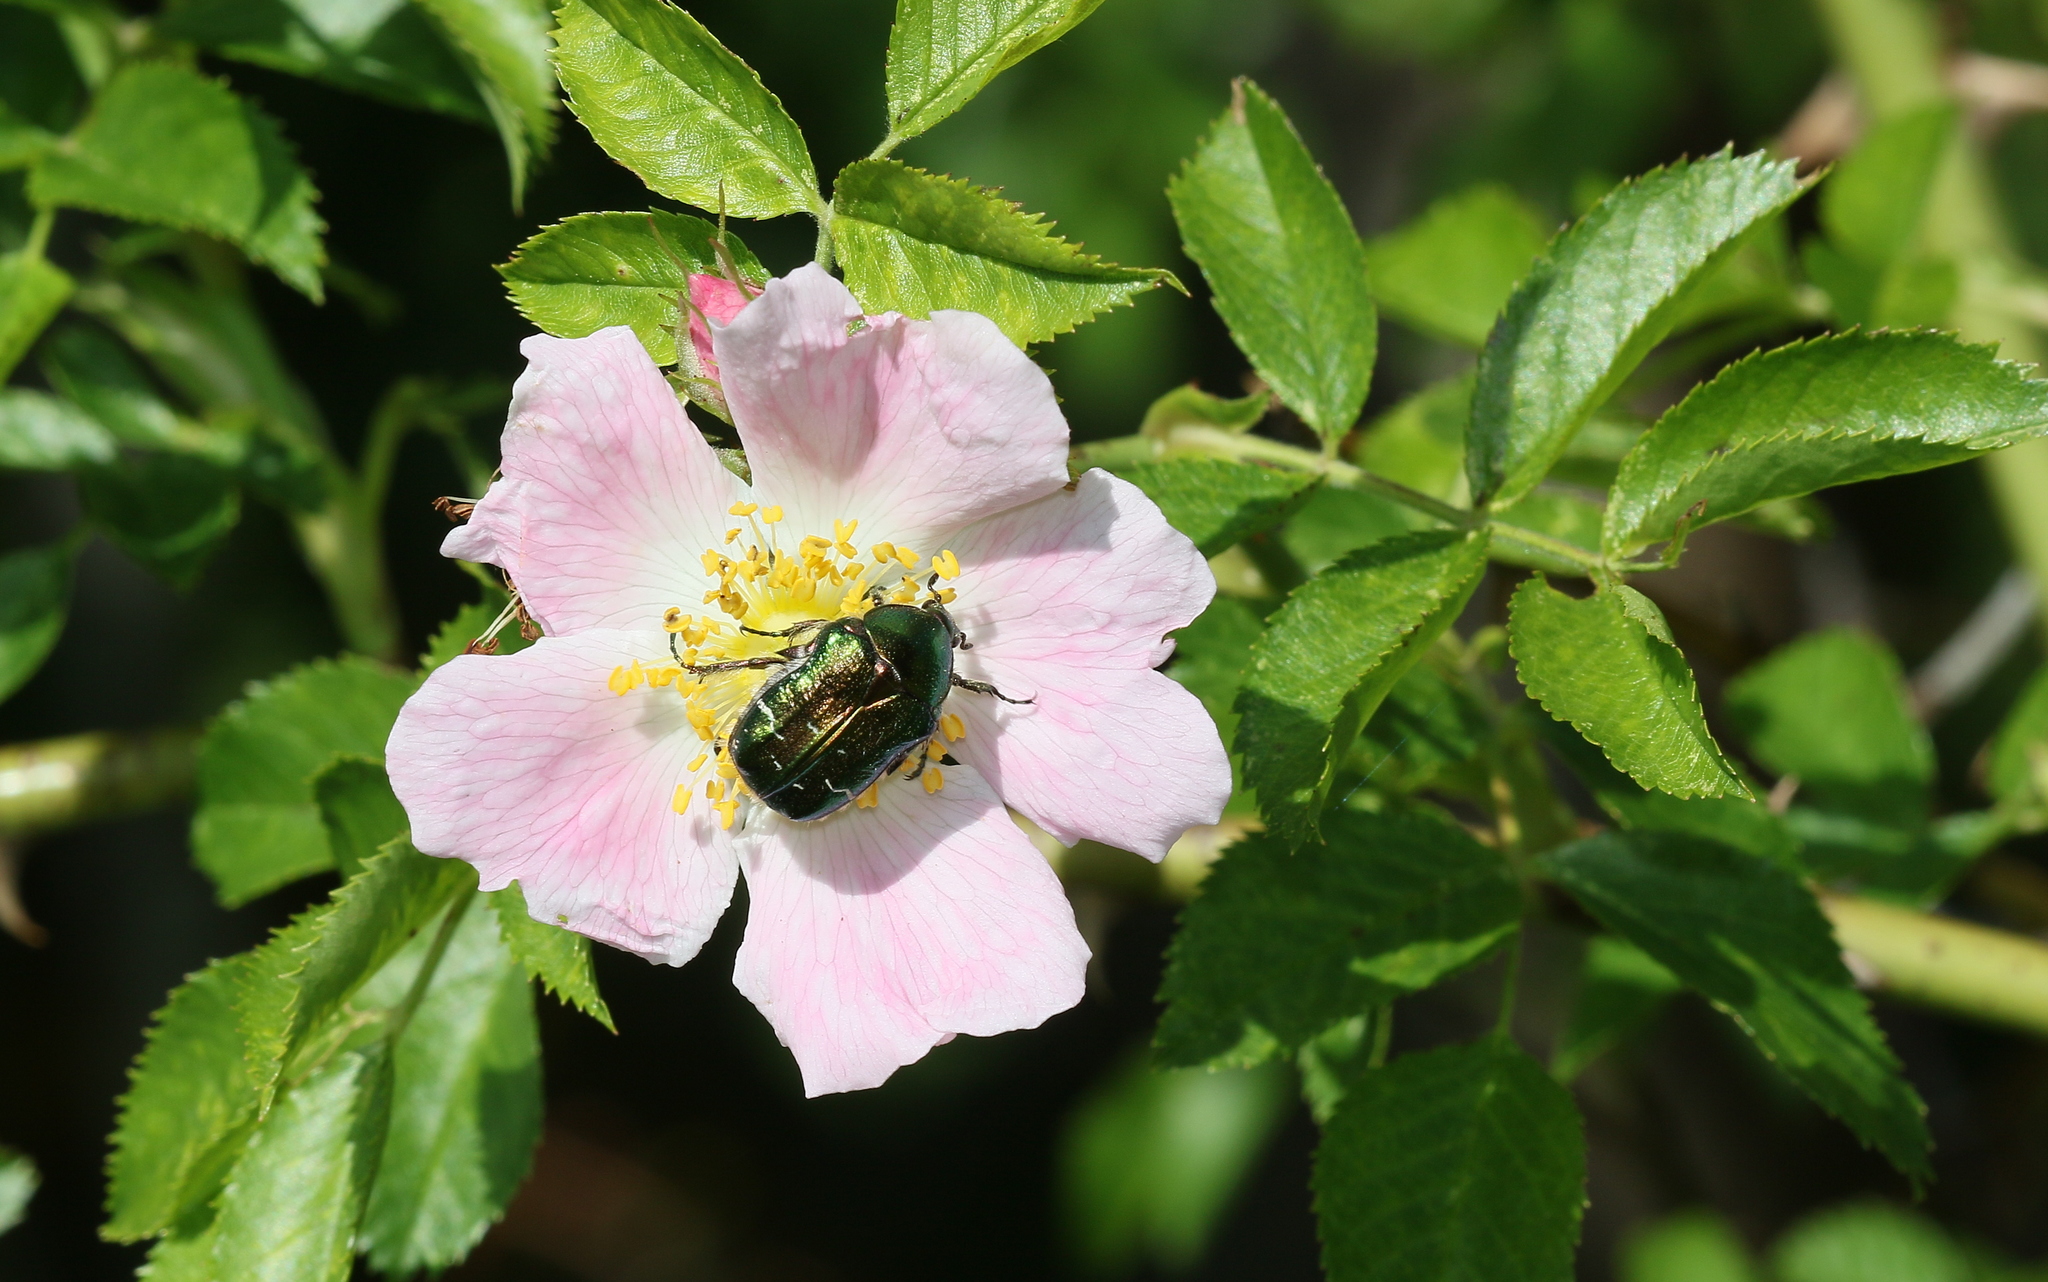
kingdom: Animalia
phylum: Arthropoda
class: Insecta
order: Coleoptera
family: Scarabaeidae
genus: Cetonia
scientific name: Cetonia aurata
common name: Rose chafer
